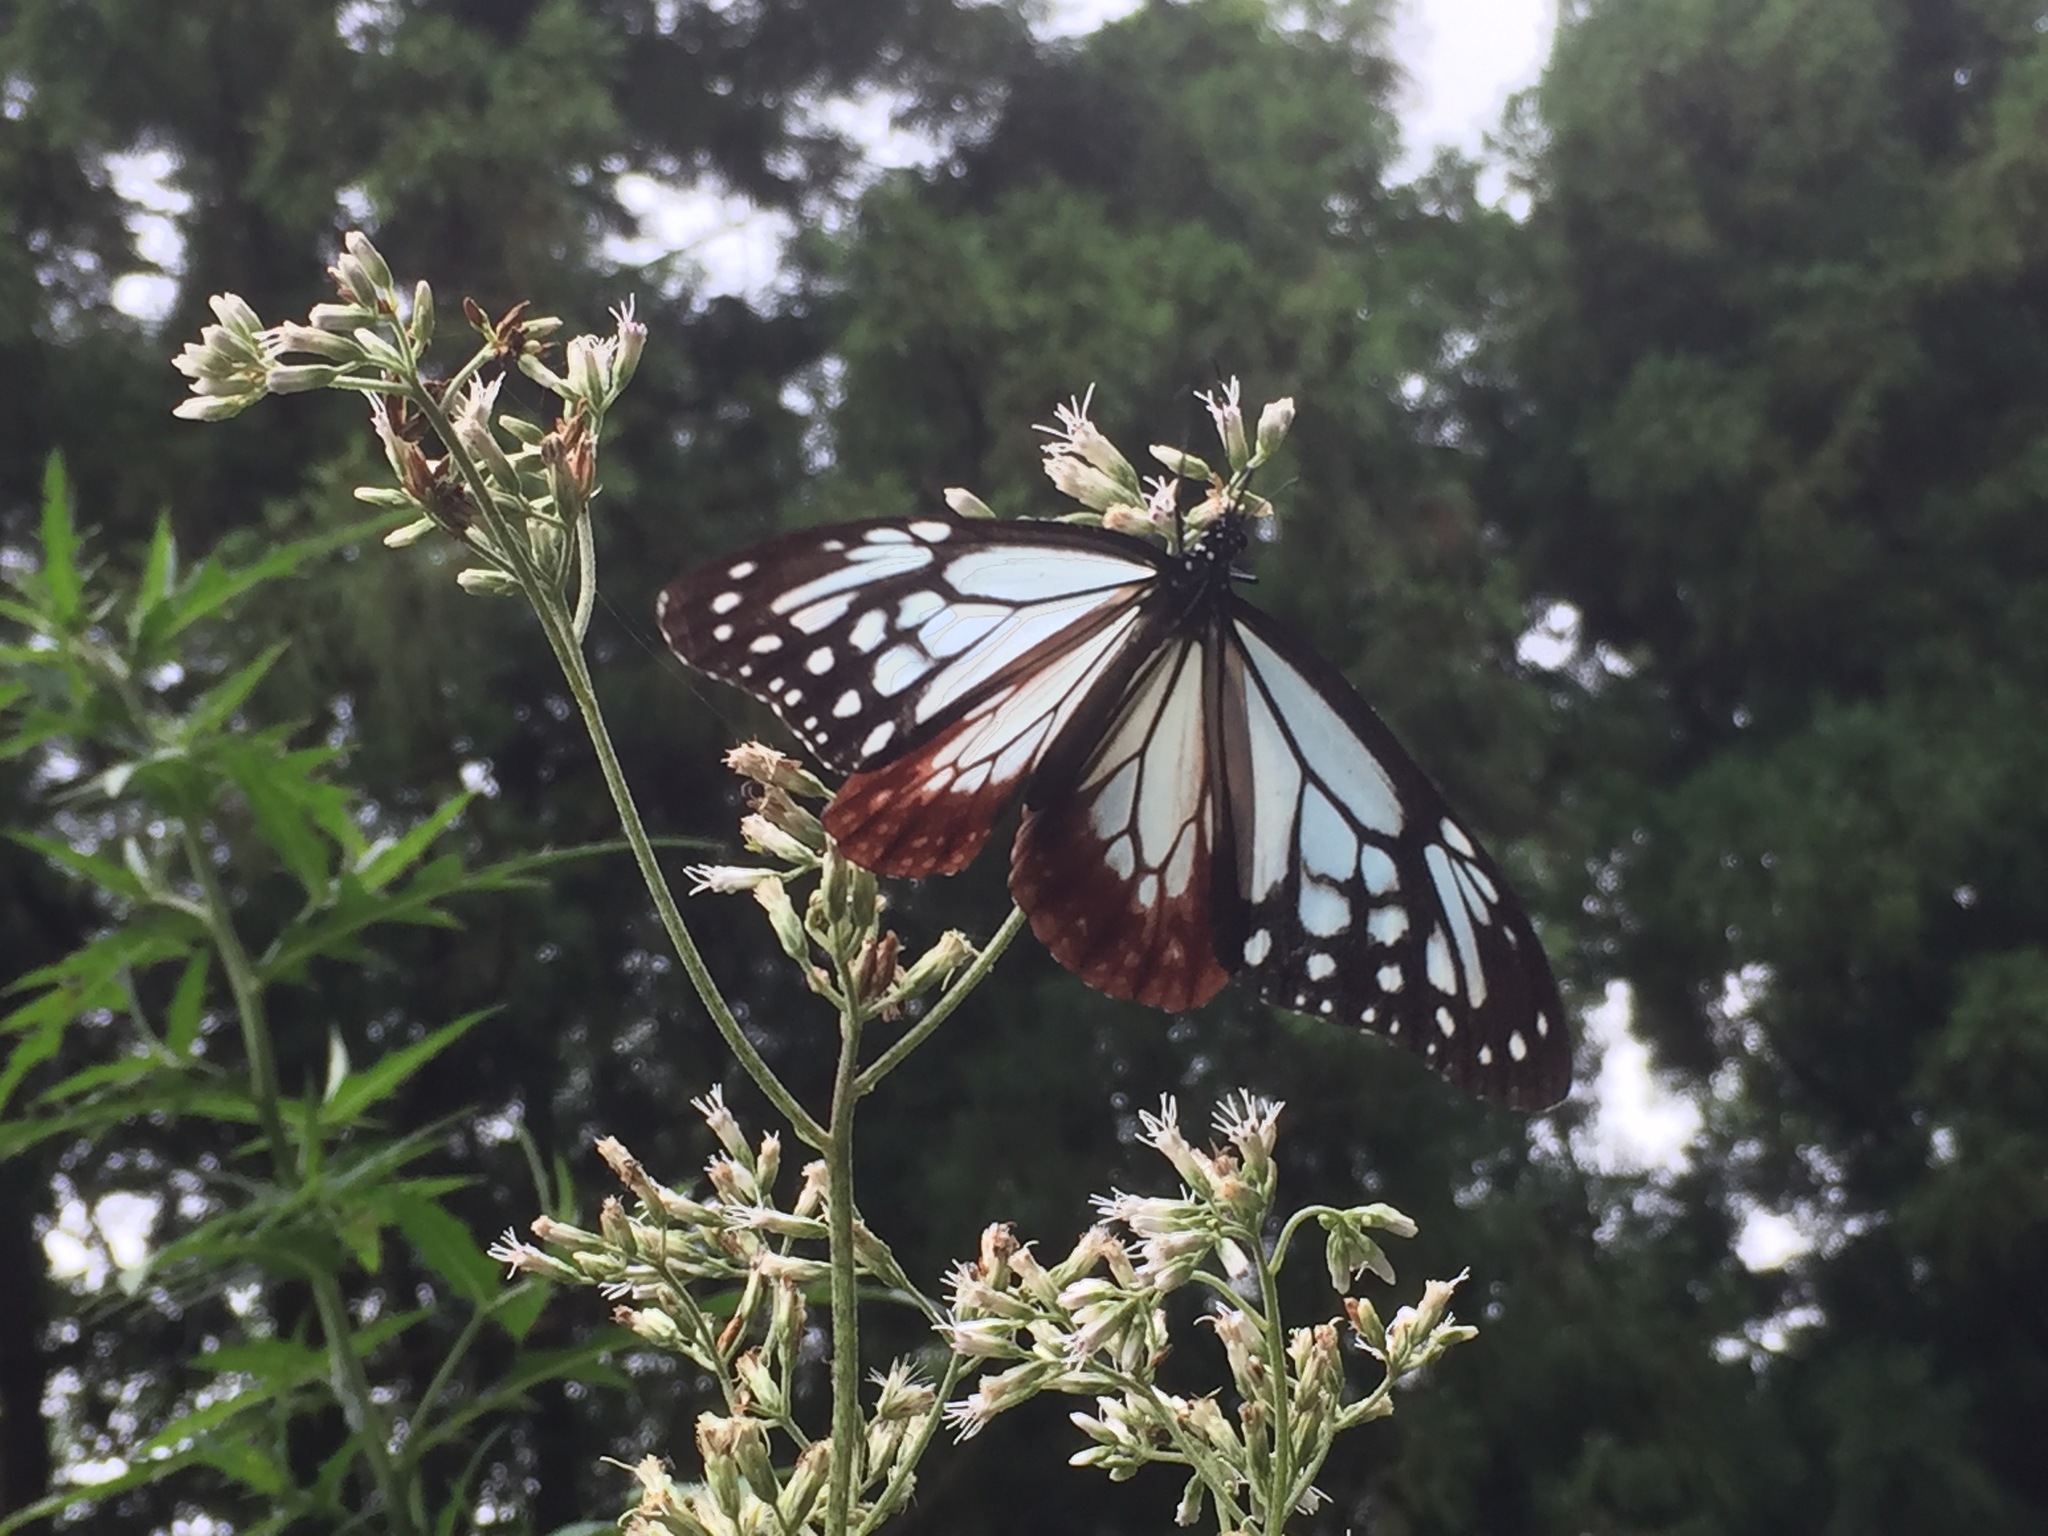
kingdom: Animalia
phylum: Arthropoda
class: Insecta
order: Lepidoptera
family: Nymphalidae
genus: Parantica
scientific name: Parantica sita
